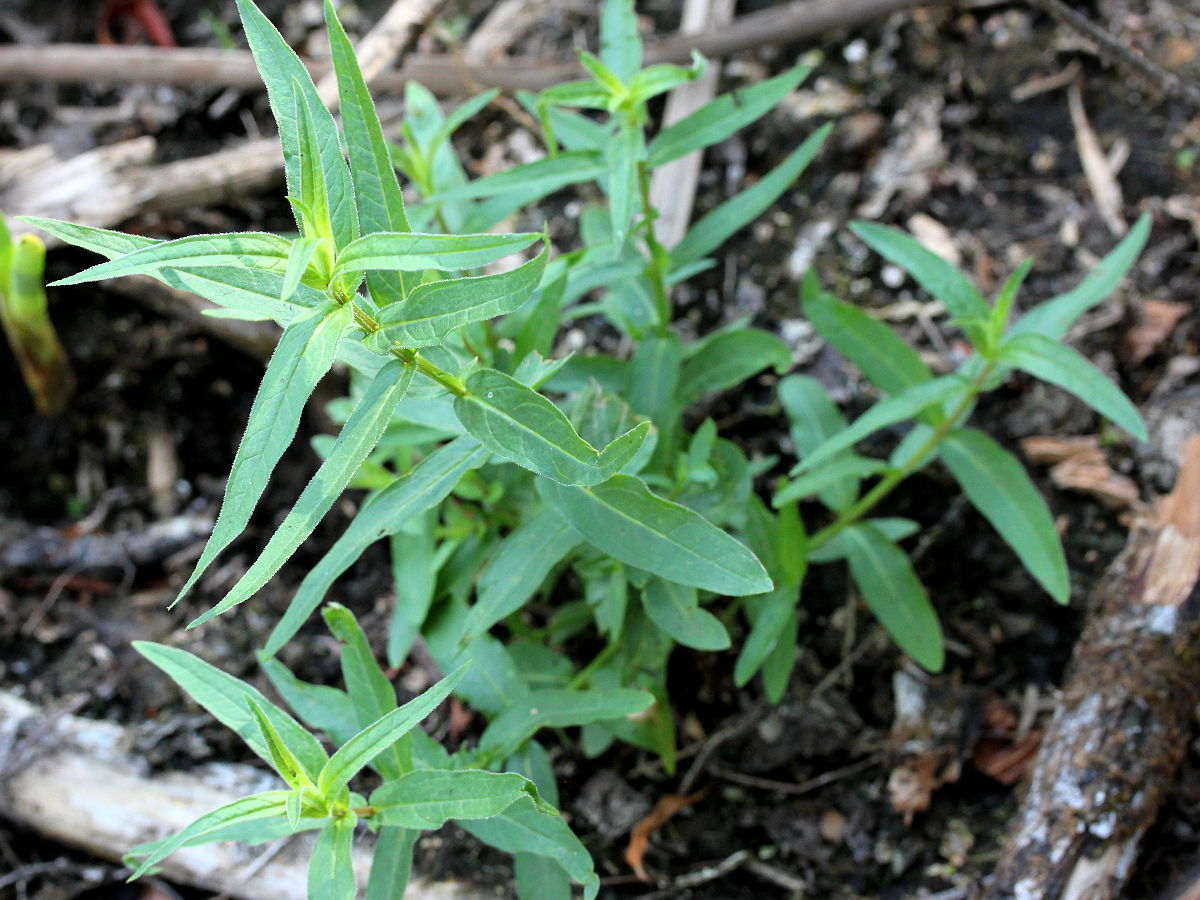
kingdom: Plantae
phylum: Tracheophyta
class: Magnoliopsida
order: Myrtales
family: Lythraceae
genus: Lythrum
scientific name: Lythrum salicaria
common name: Purple loosestrife
